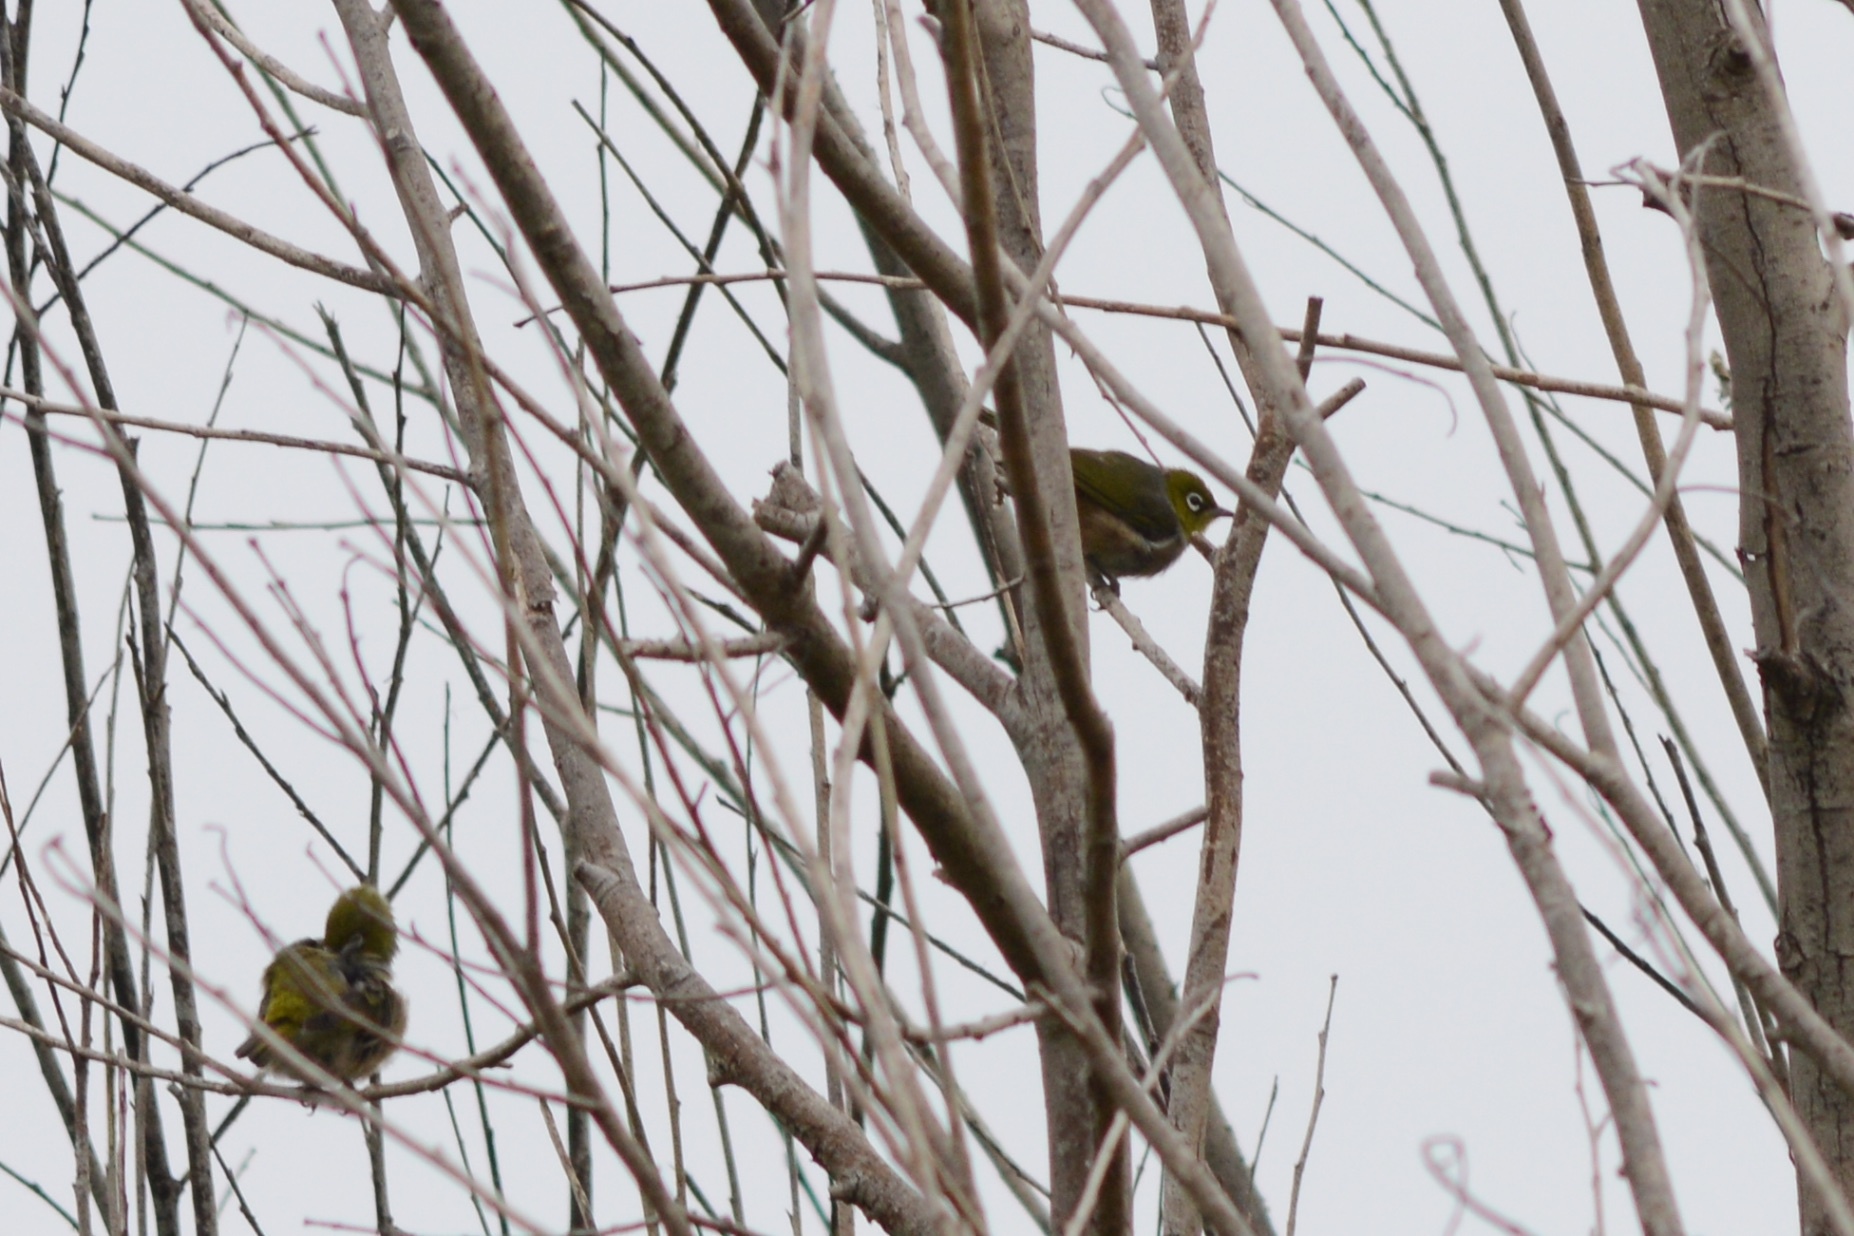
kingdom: Animalia
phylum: Chordata
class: Aves
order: Passeriformes
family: Zosteropidae
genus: Zosterops
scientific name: Zosterops lateralis
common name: Silvereye
